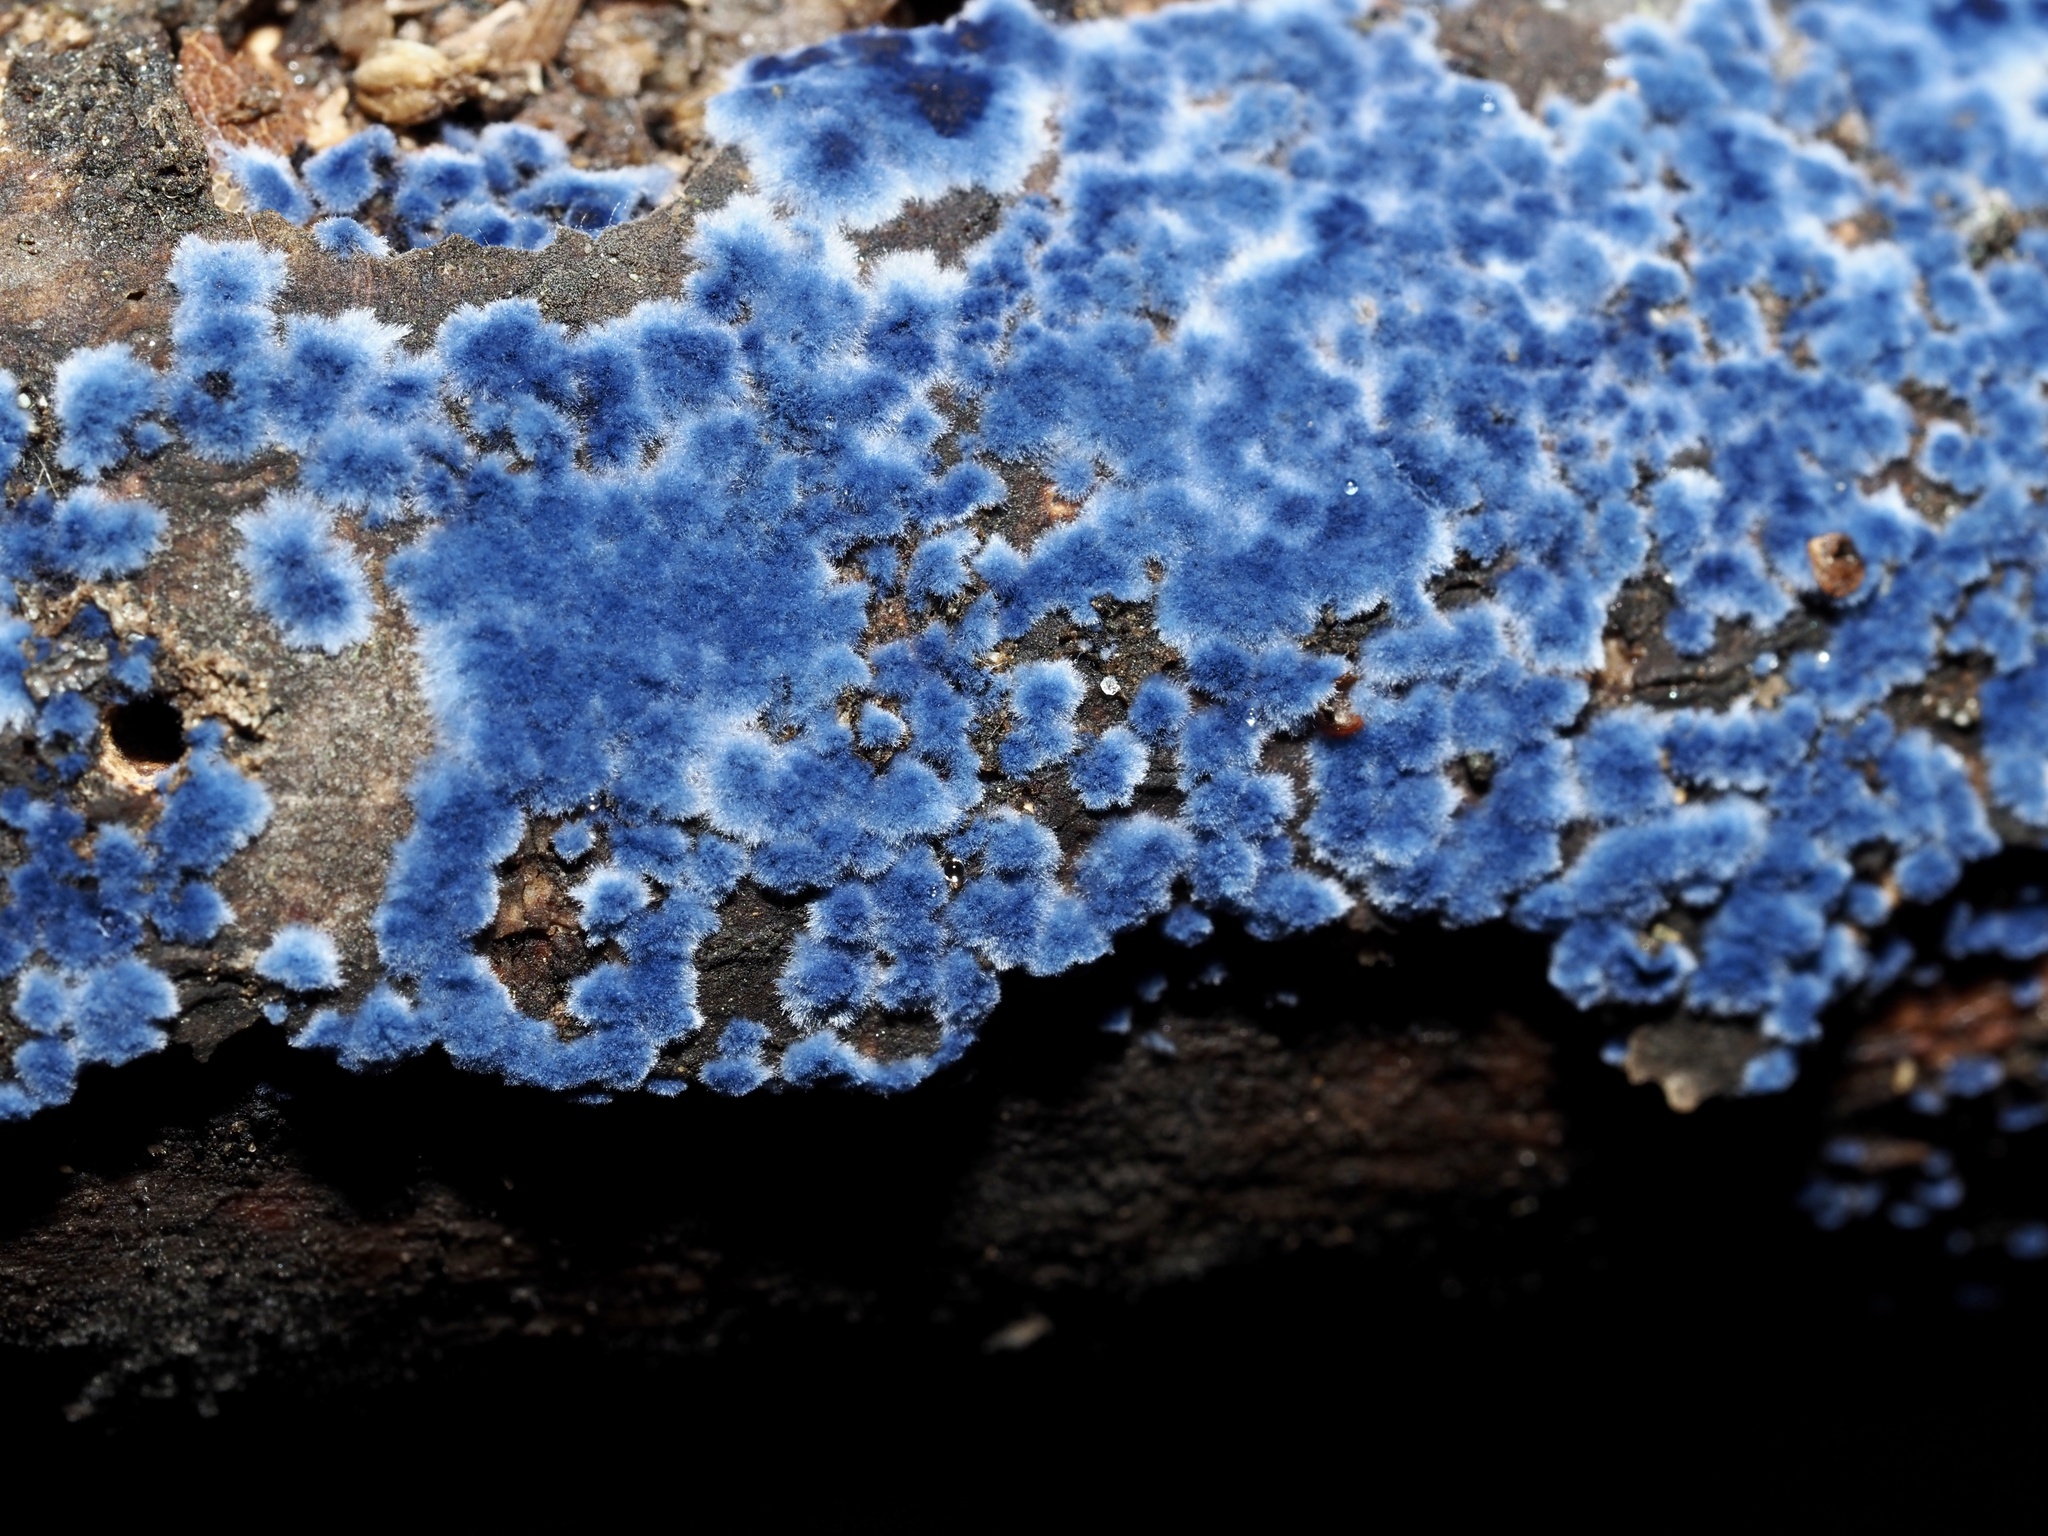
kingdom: Fungi
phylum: Basidiomycota
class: Agaricomycetes
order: Polyporales
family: Phanerochaetaceae
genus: Terana
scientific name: Terana coerulea
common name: Cobalt crust
